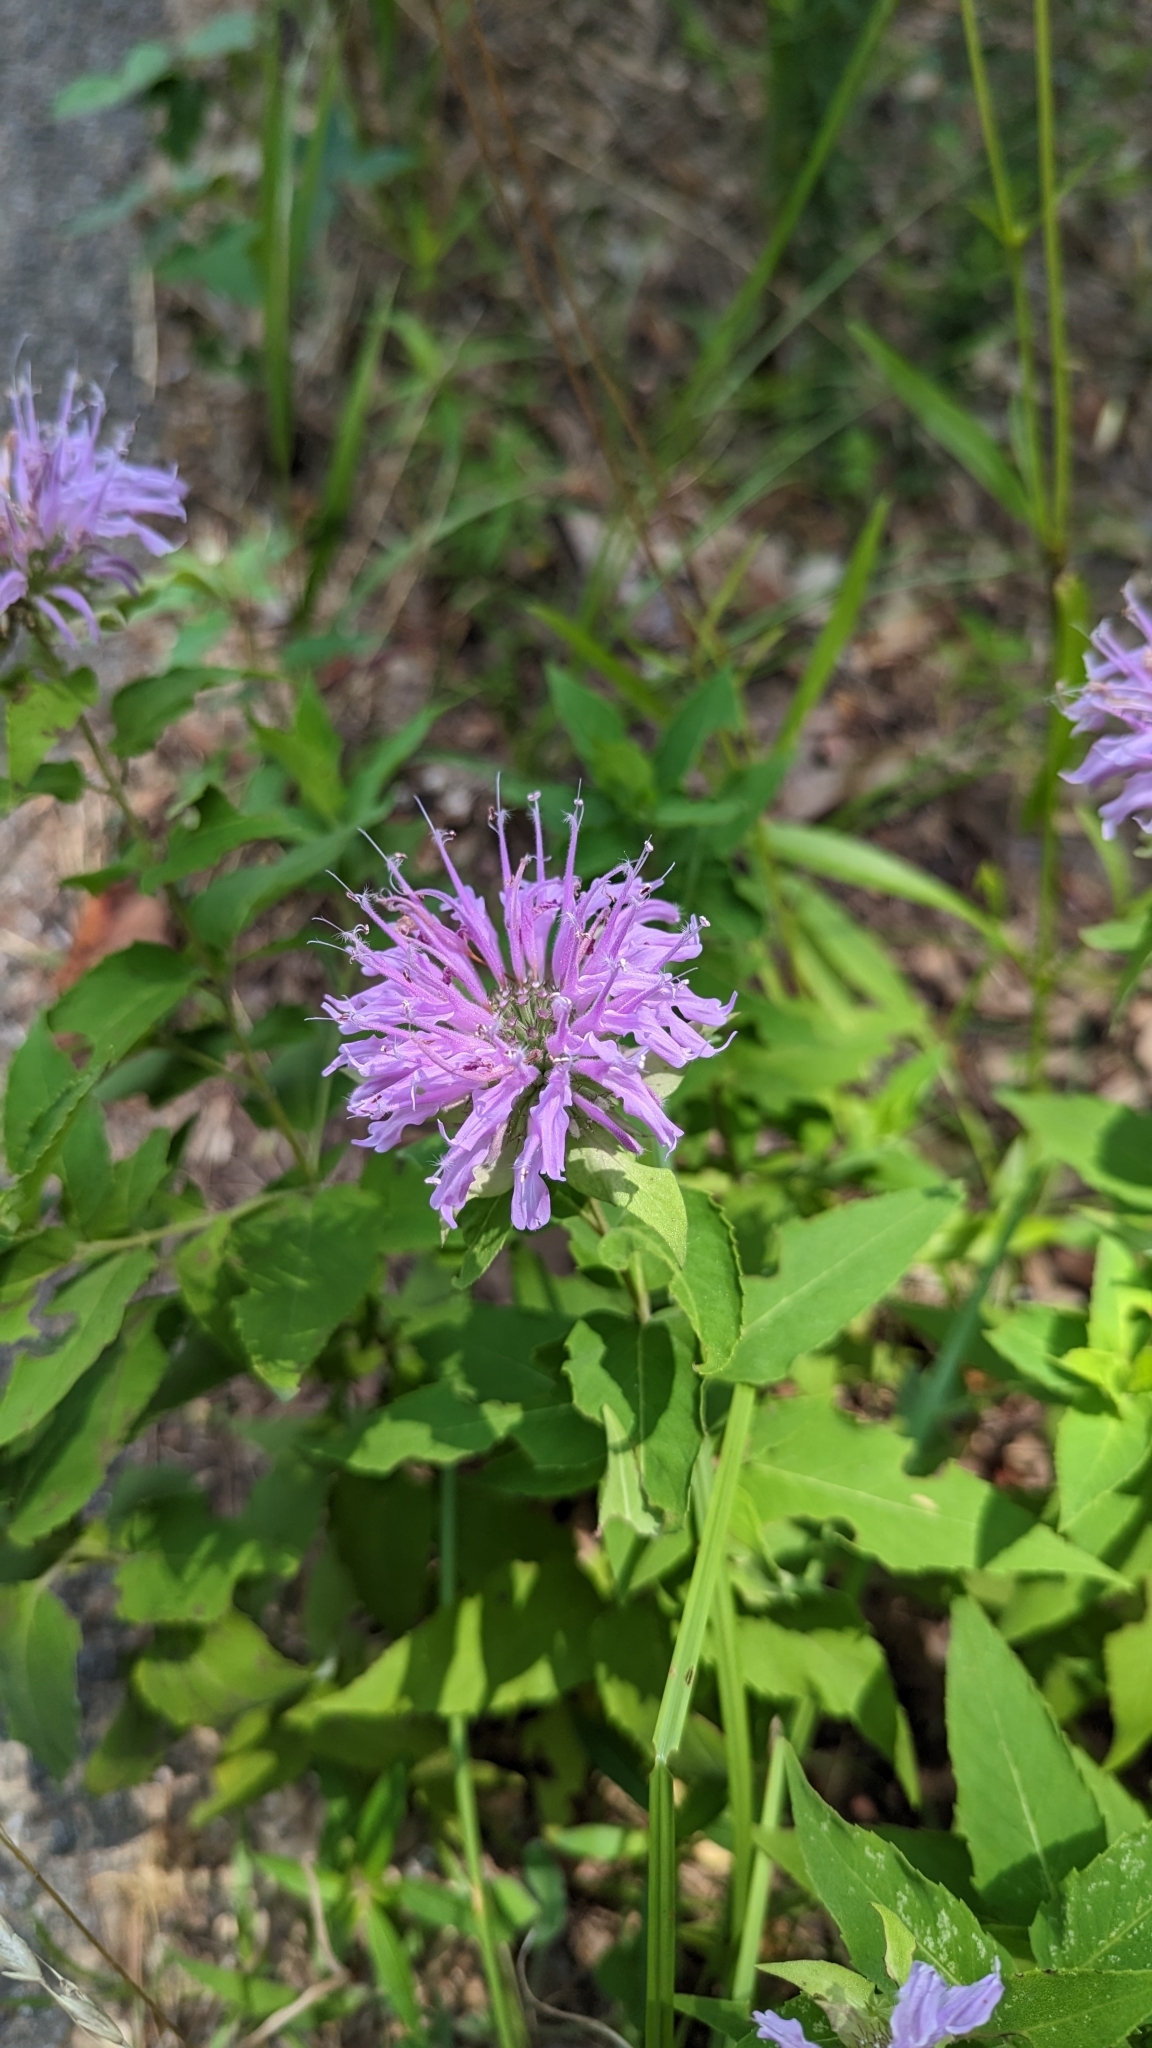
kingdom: Plantae
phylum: Tracheophyta
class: Magnoliopsida
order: Lamiales
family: Lamiaceae
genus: Monarda
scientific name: Monarda fistulosa
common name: Purple beebalm
